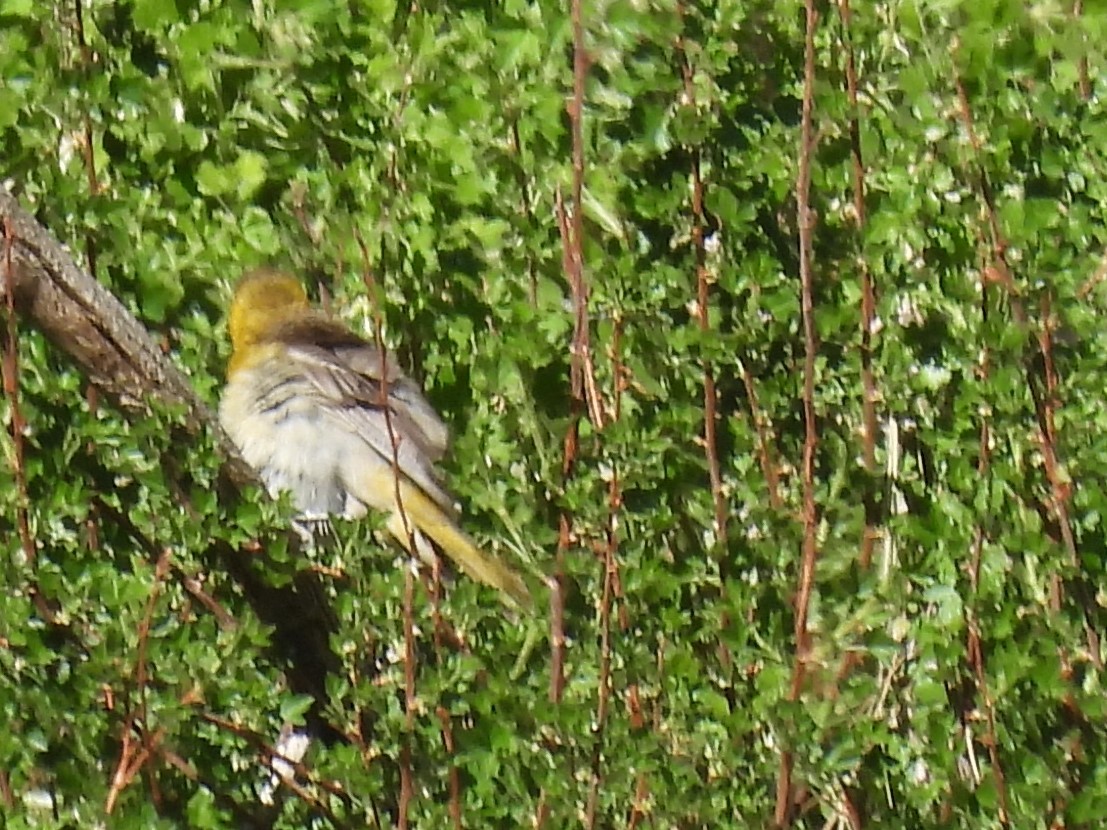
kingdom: Animalia
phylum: Chordata
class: Aves
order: Passeriformes
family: Icteridae
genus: Icterus
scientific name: Icterus bullockii
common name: Bullock's oriole
